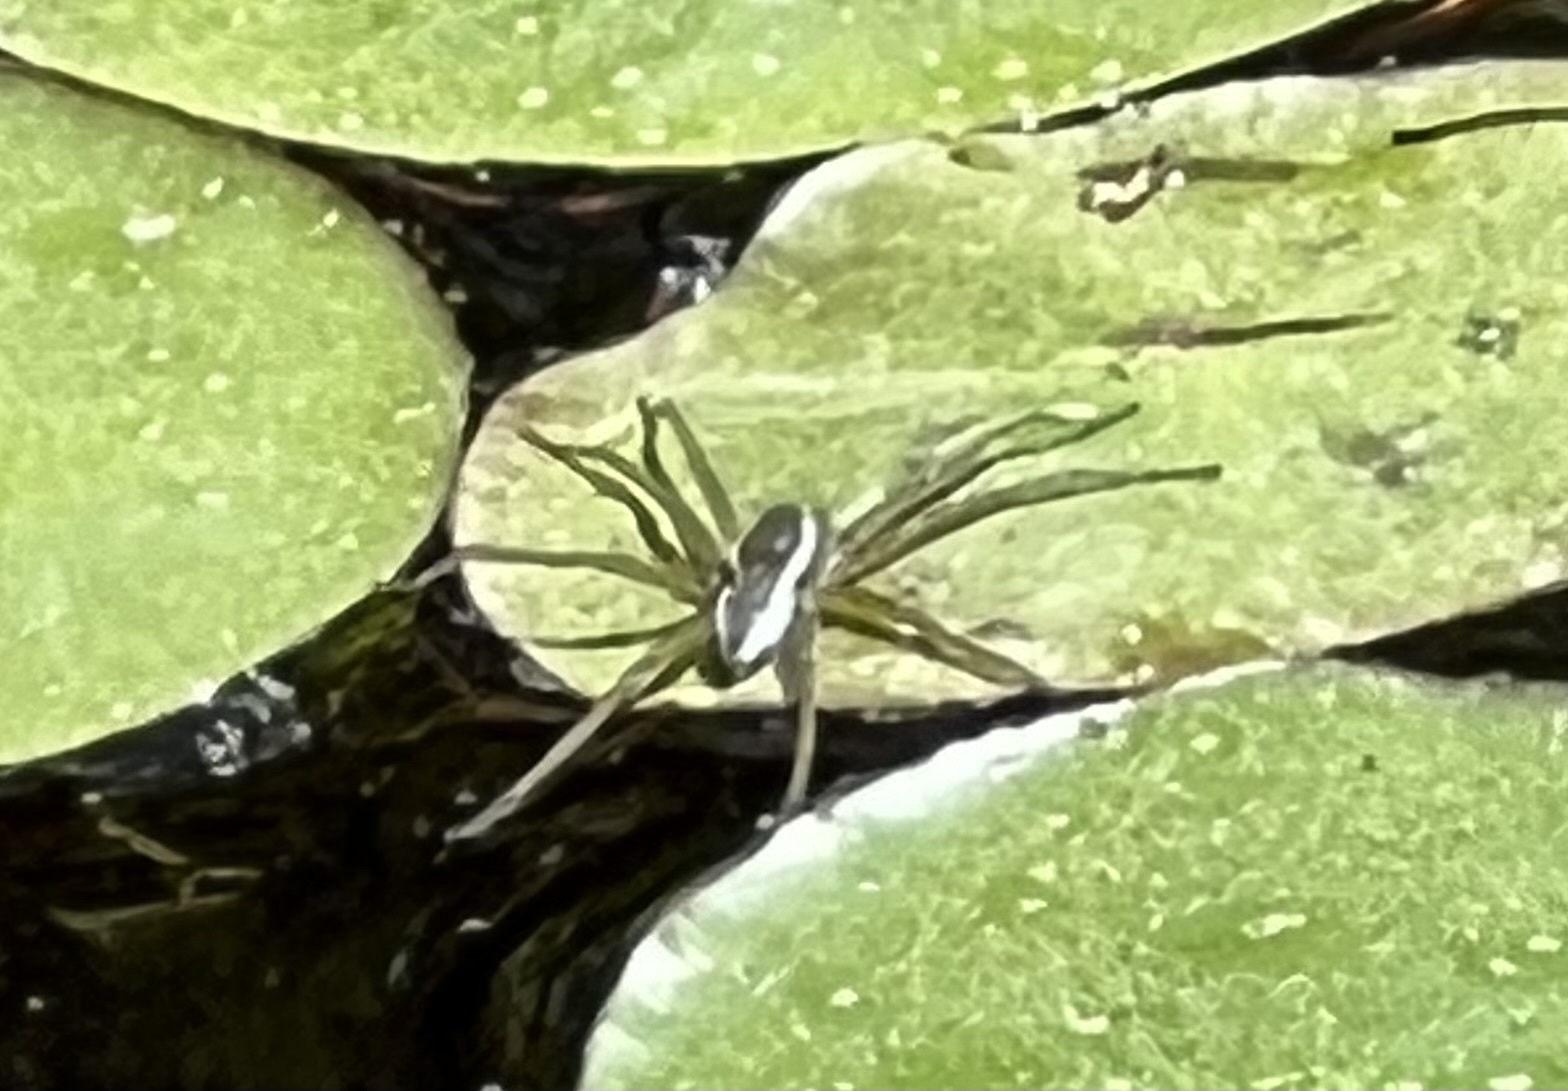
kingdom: Animalia
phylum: Arthropoda
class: Arachnida
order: Araneae
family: Pisauridae
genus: Dolomedes
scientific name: Dolomedes triton
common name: Six-spotted fishing spider
